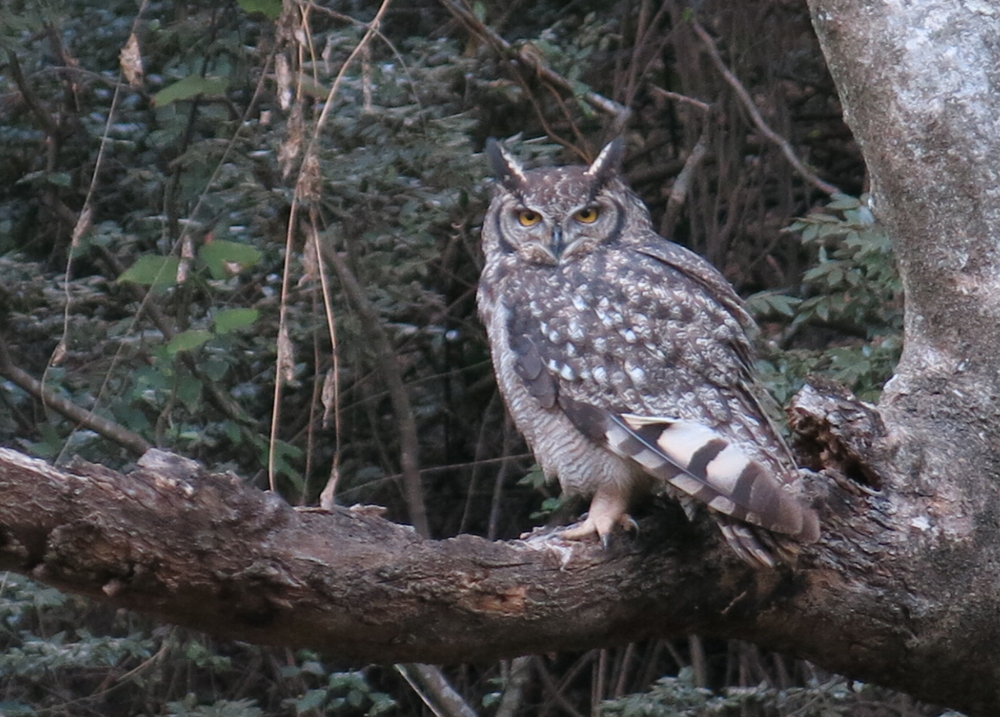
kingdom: Animalia
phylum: Chordata
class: Aves
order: Strigiformes
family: Strigidae
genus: Bubo
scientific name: Bubo africanus
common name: Spotted eagle-owl
